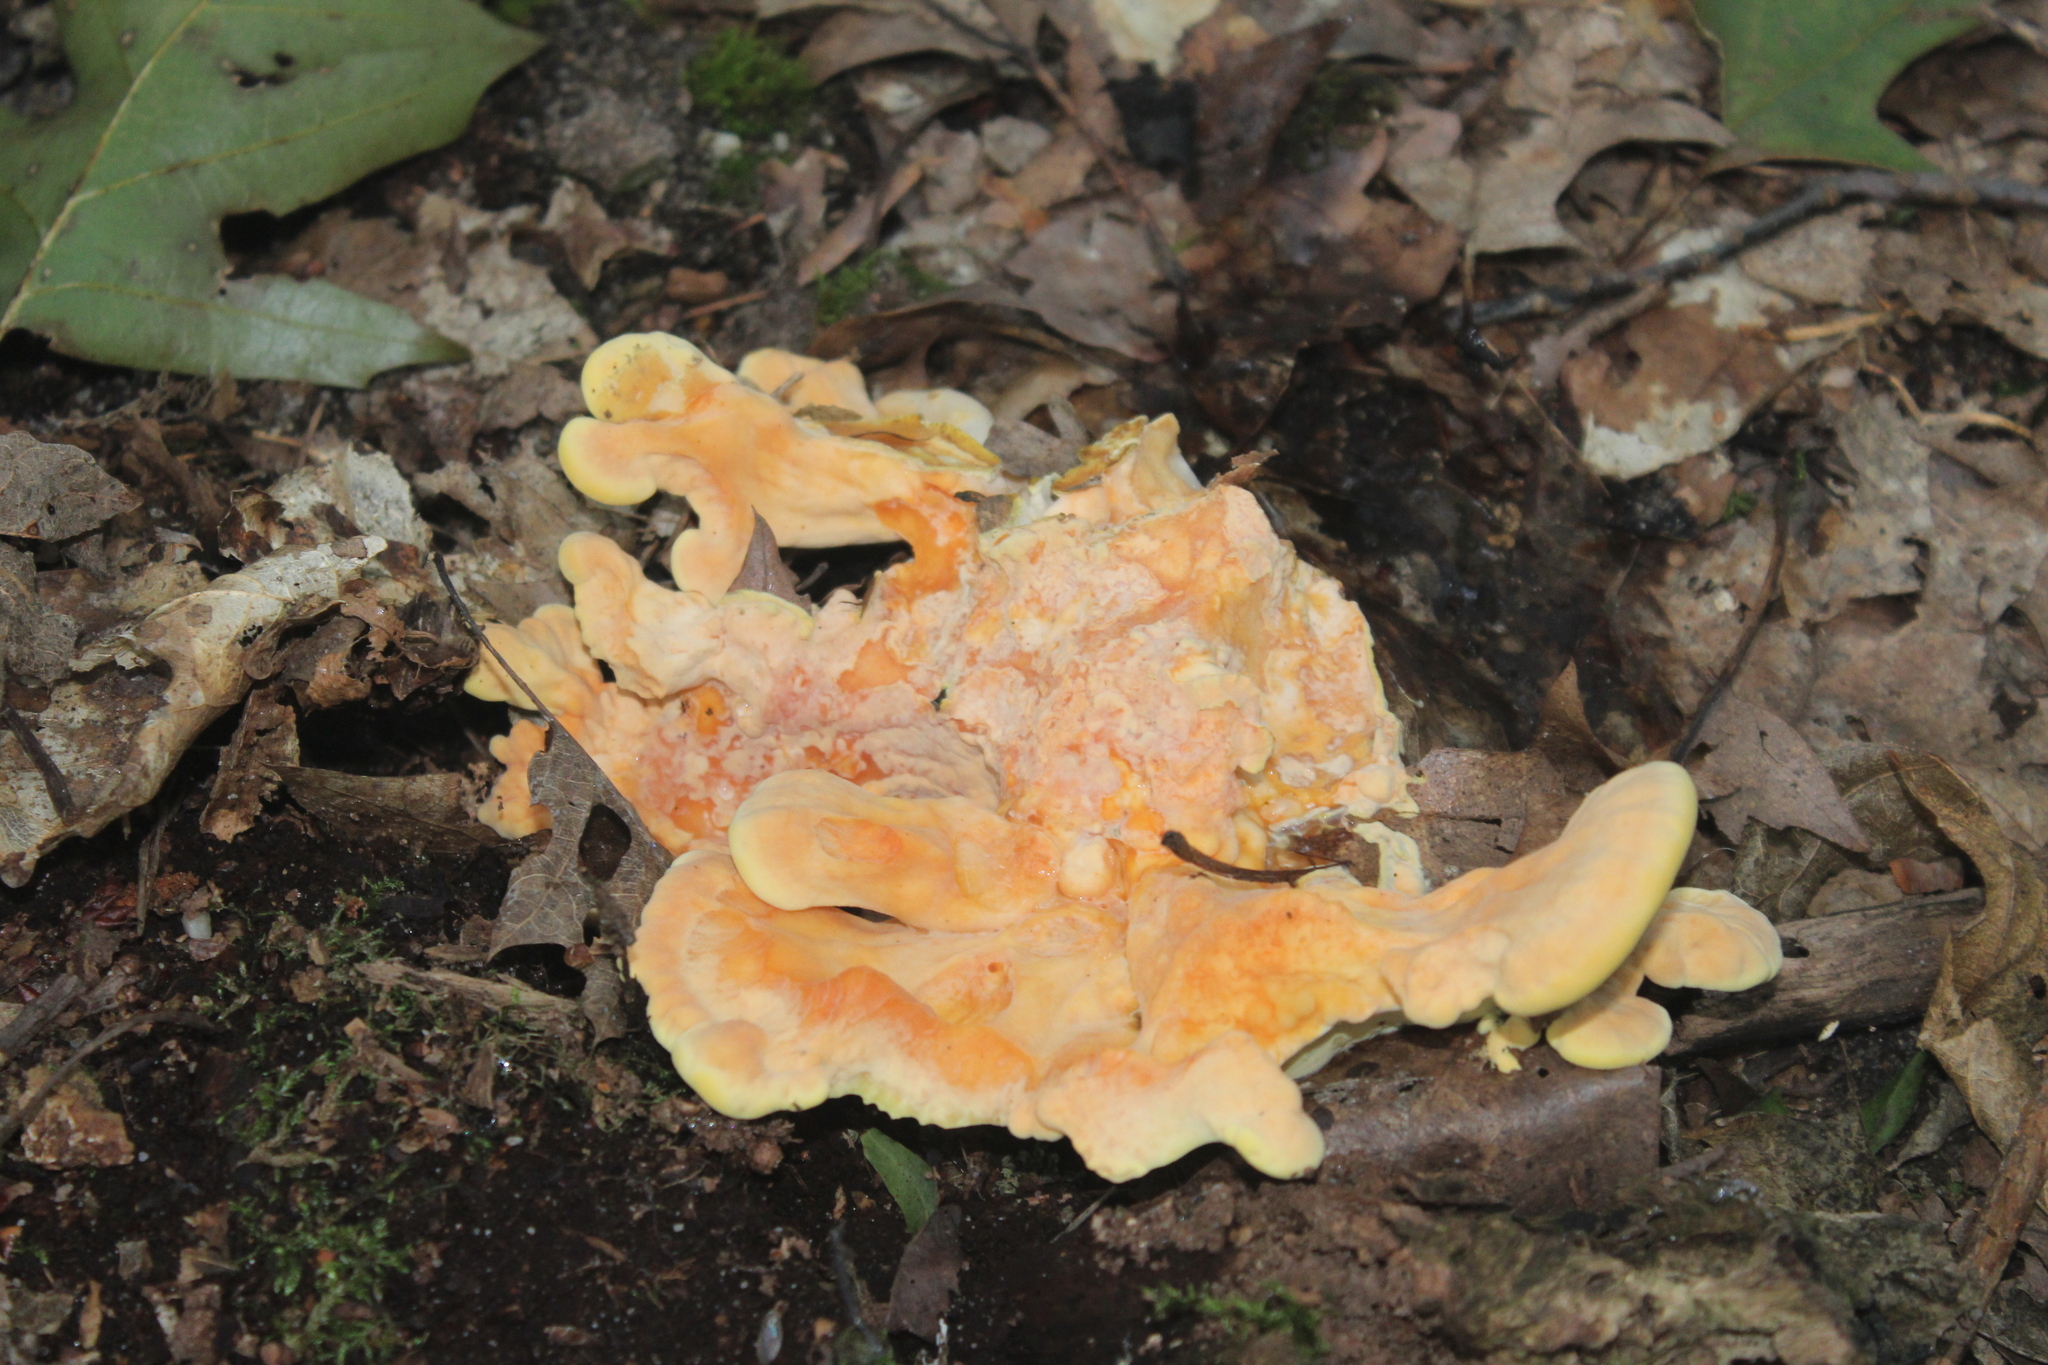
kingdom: Fungi
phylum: Basidiomycota
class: Agaricomycetes
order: Polyporales
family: Laetiporaceae
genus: Laetiporus
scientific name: Laetiporus sulphureus
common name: Chicken of the woods
